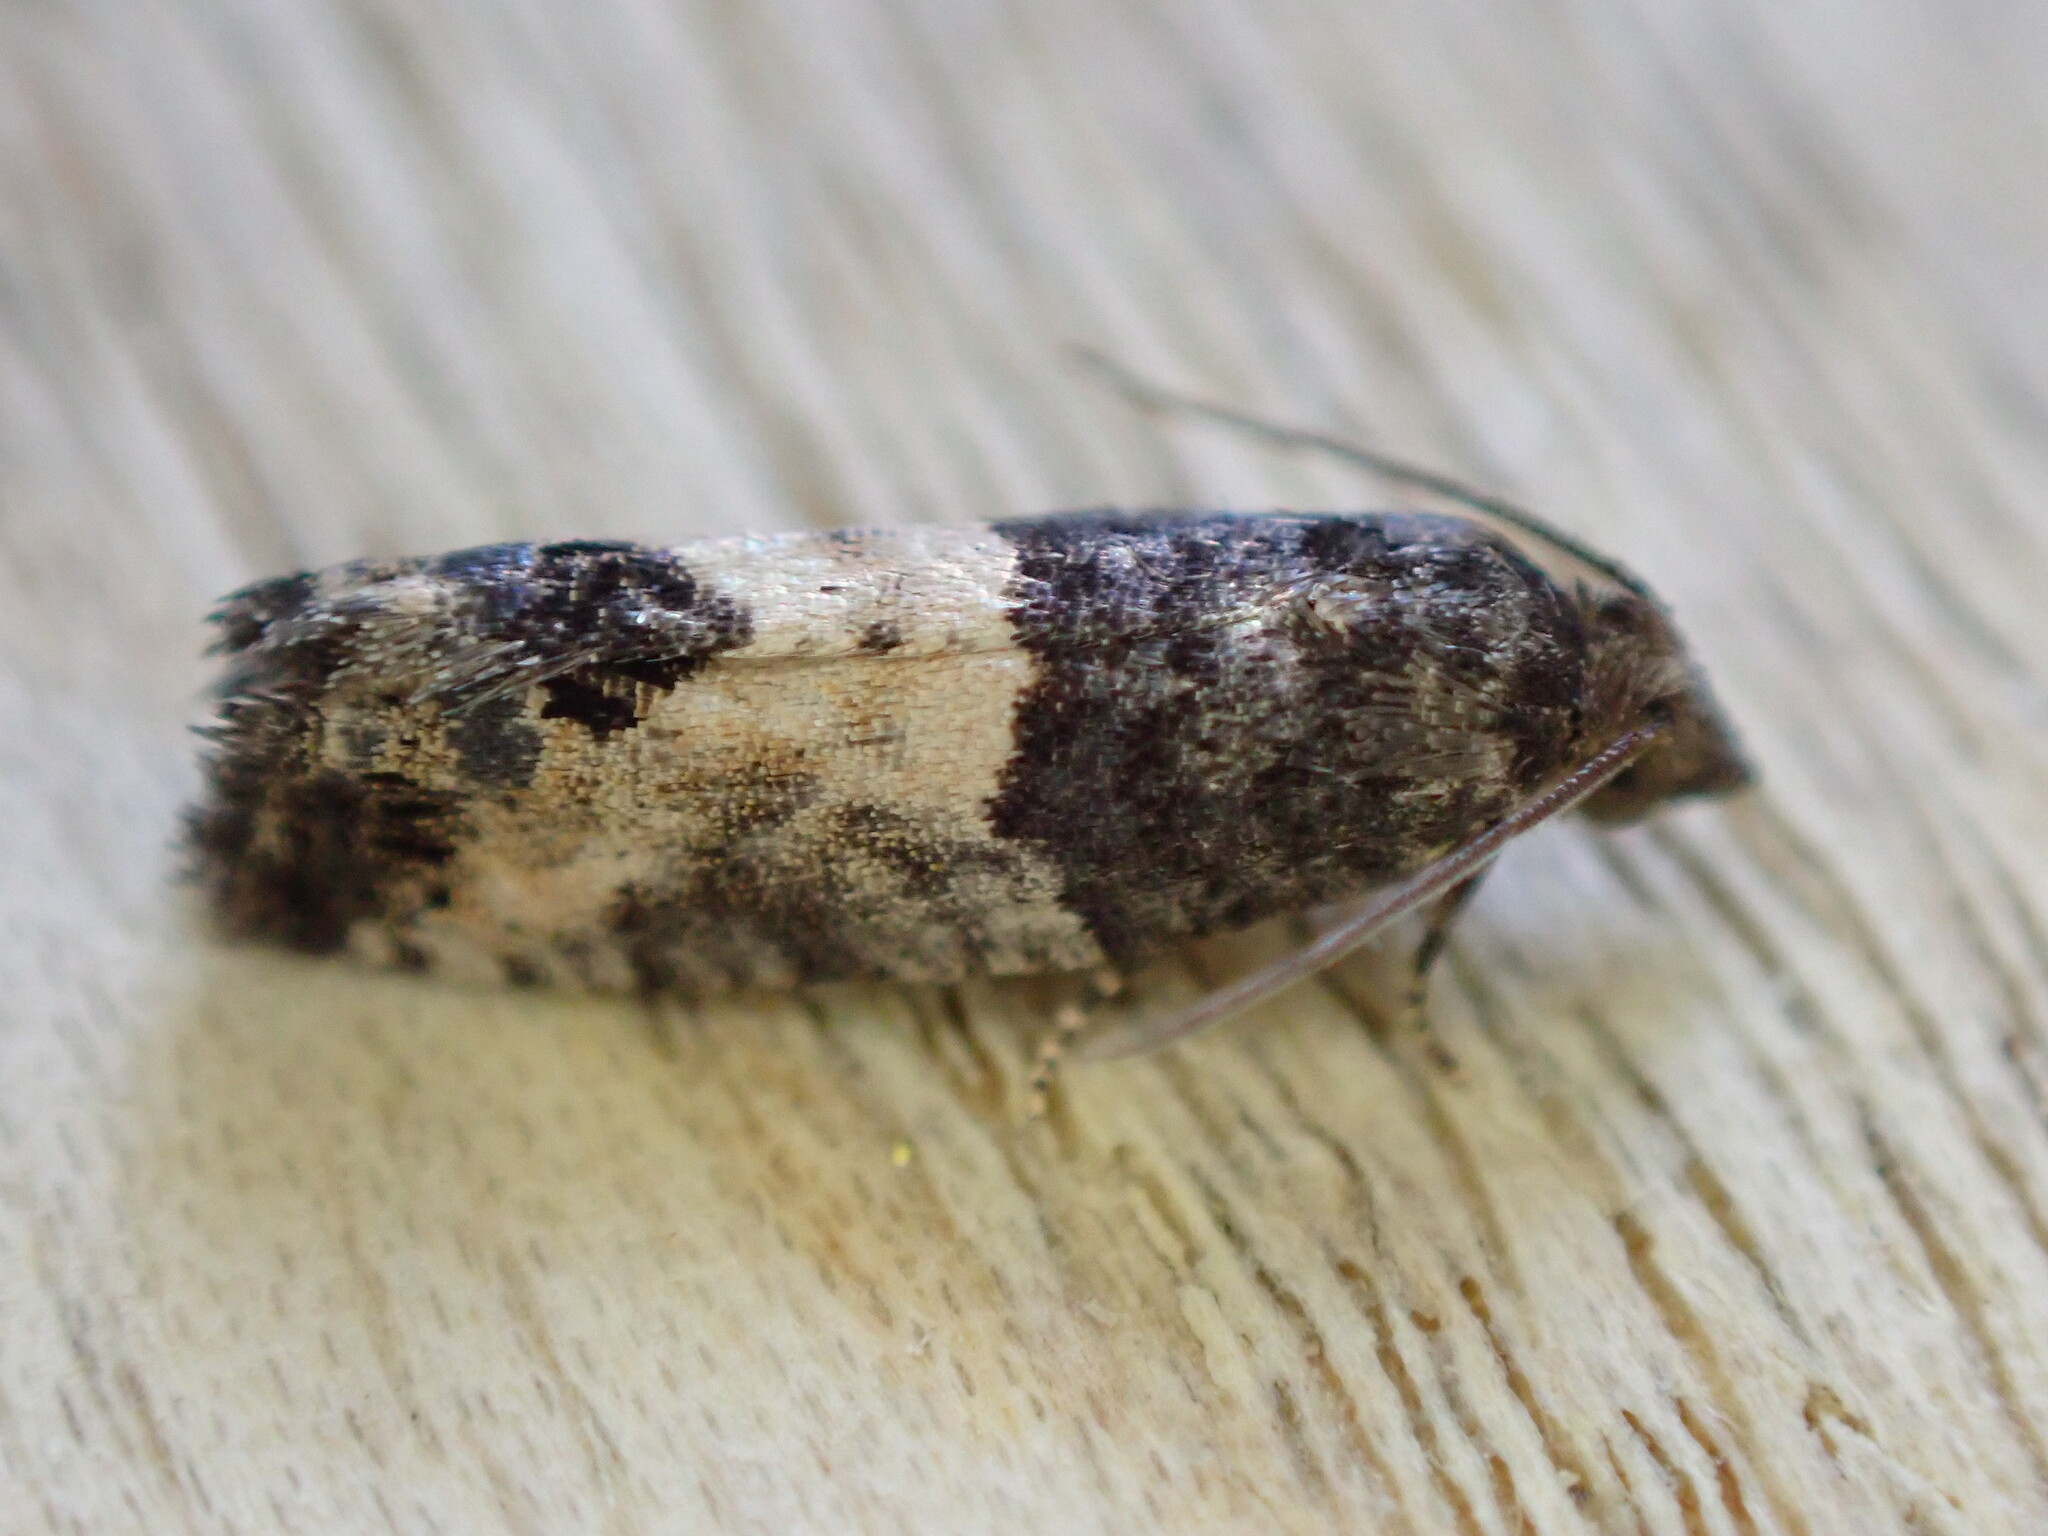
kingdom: Animalia
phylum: Arthropoda
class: Insecta
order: Lepidoptera
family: Tortricidae
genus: Spilonota
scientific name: Spilonota ocellana
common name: Bud moth
